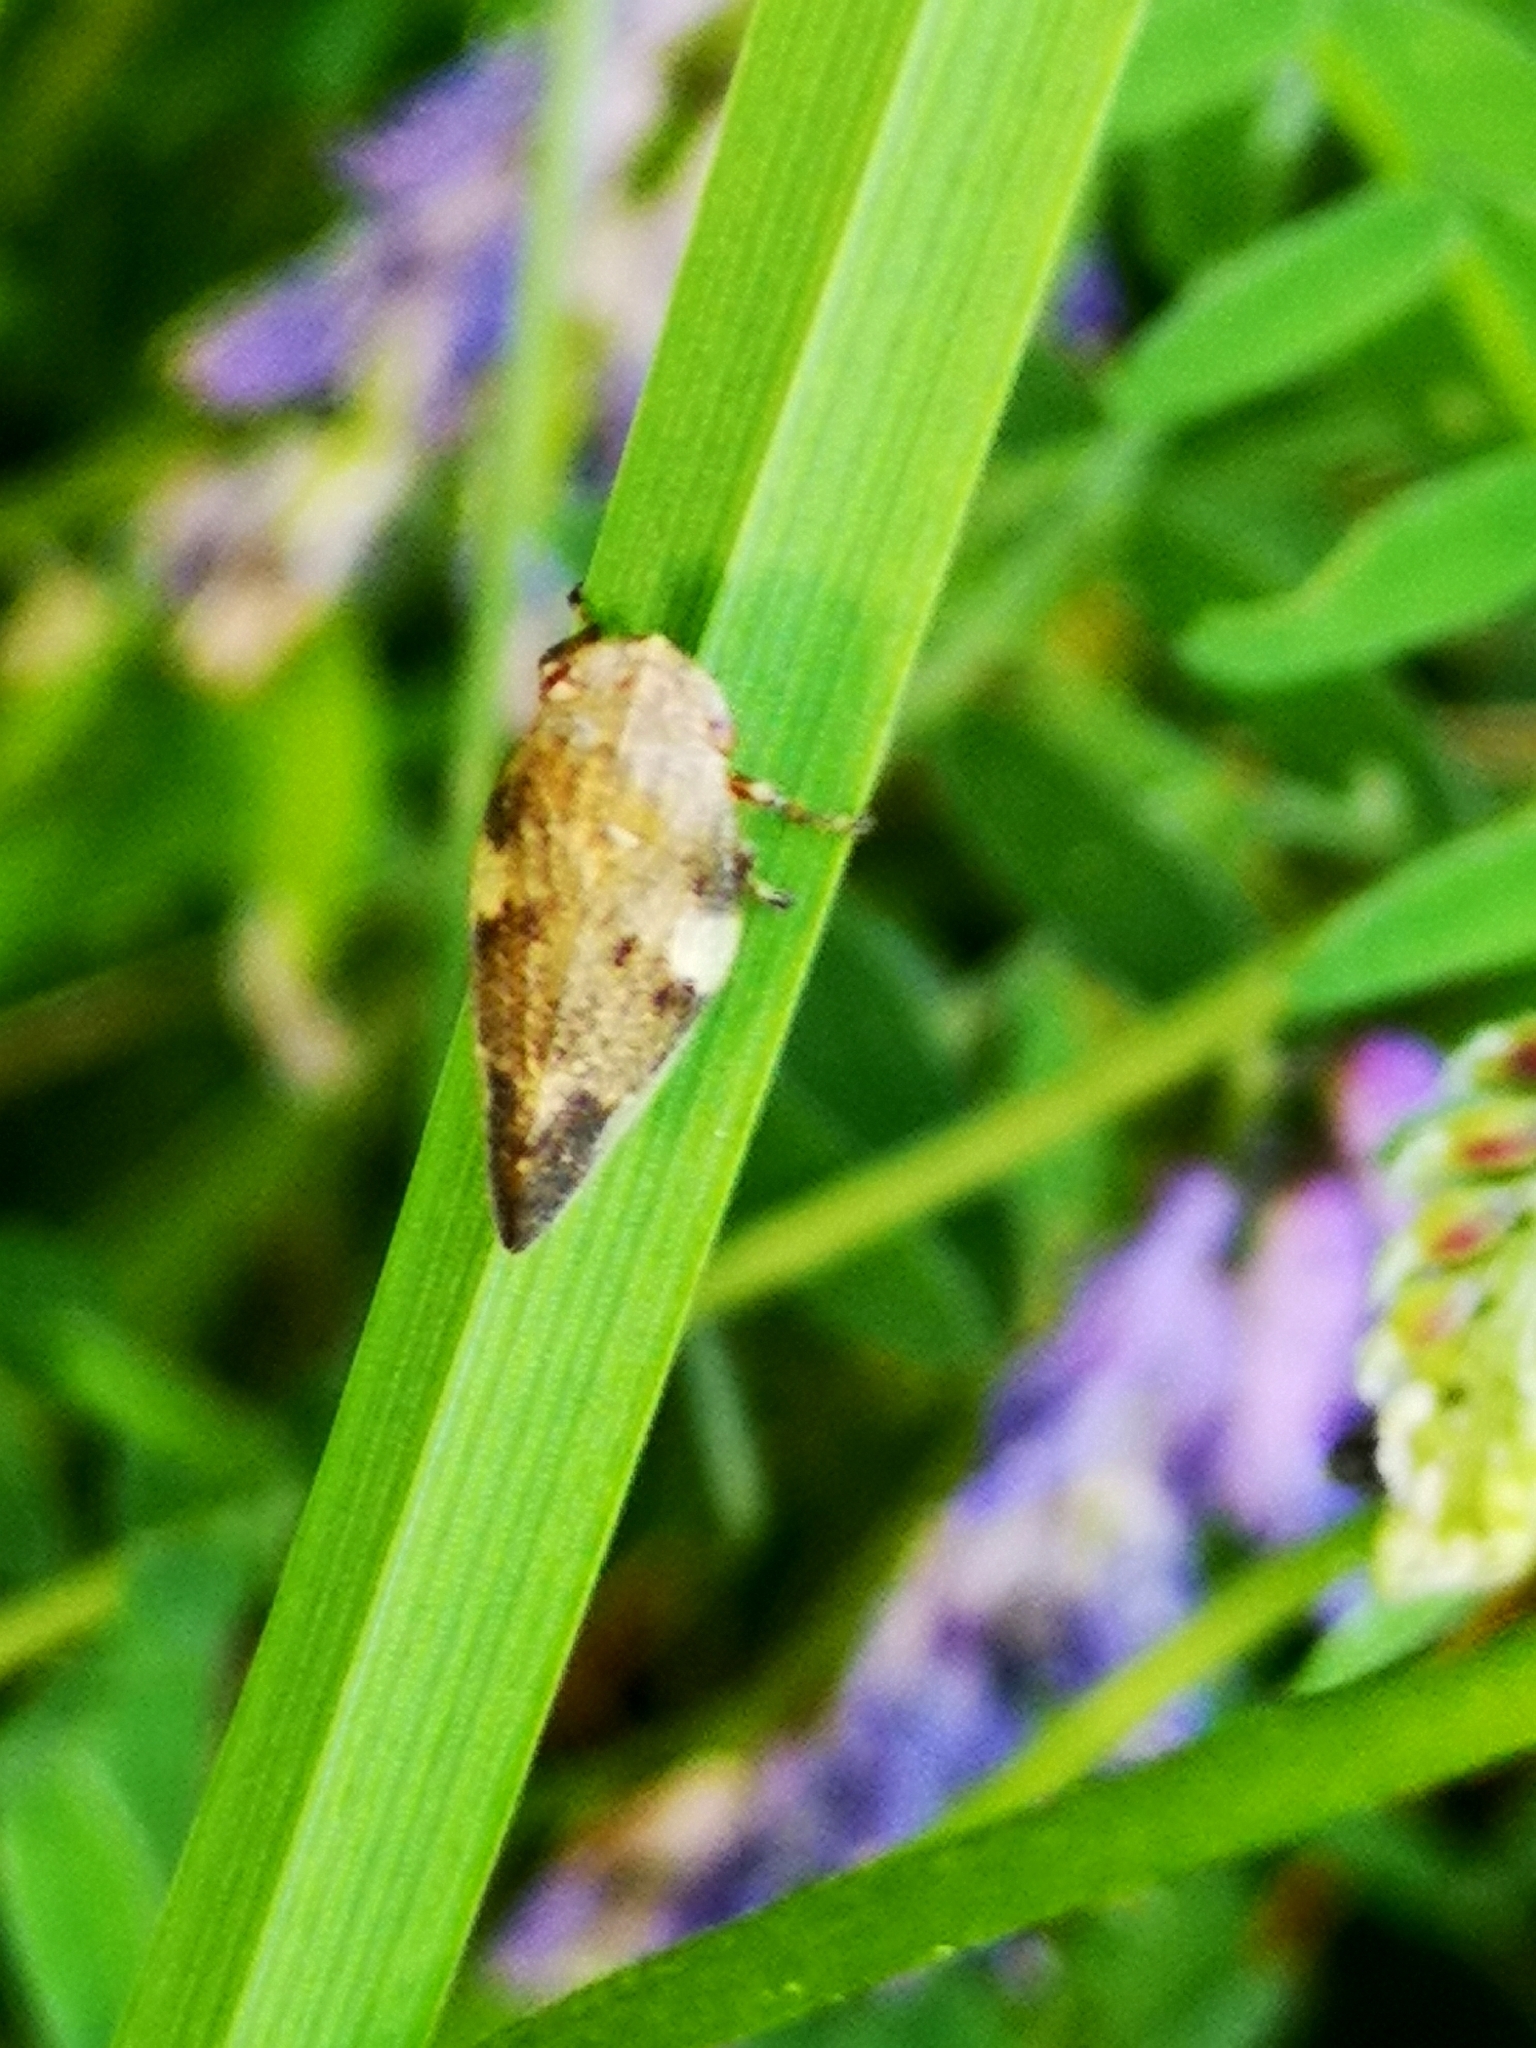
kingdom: Animalia
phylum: Arthropoda
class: Insecta
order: Hemiptera
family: Aphrophoridae
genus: Aphrophora
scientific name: Aphrophora alni
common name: European alder spittlebug
